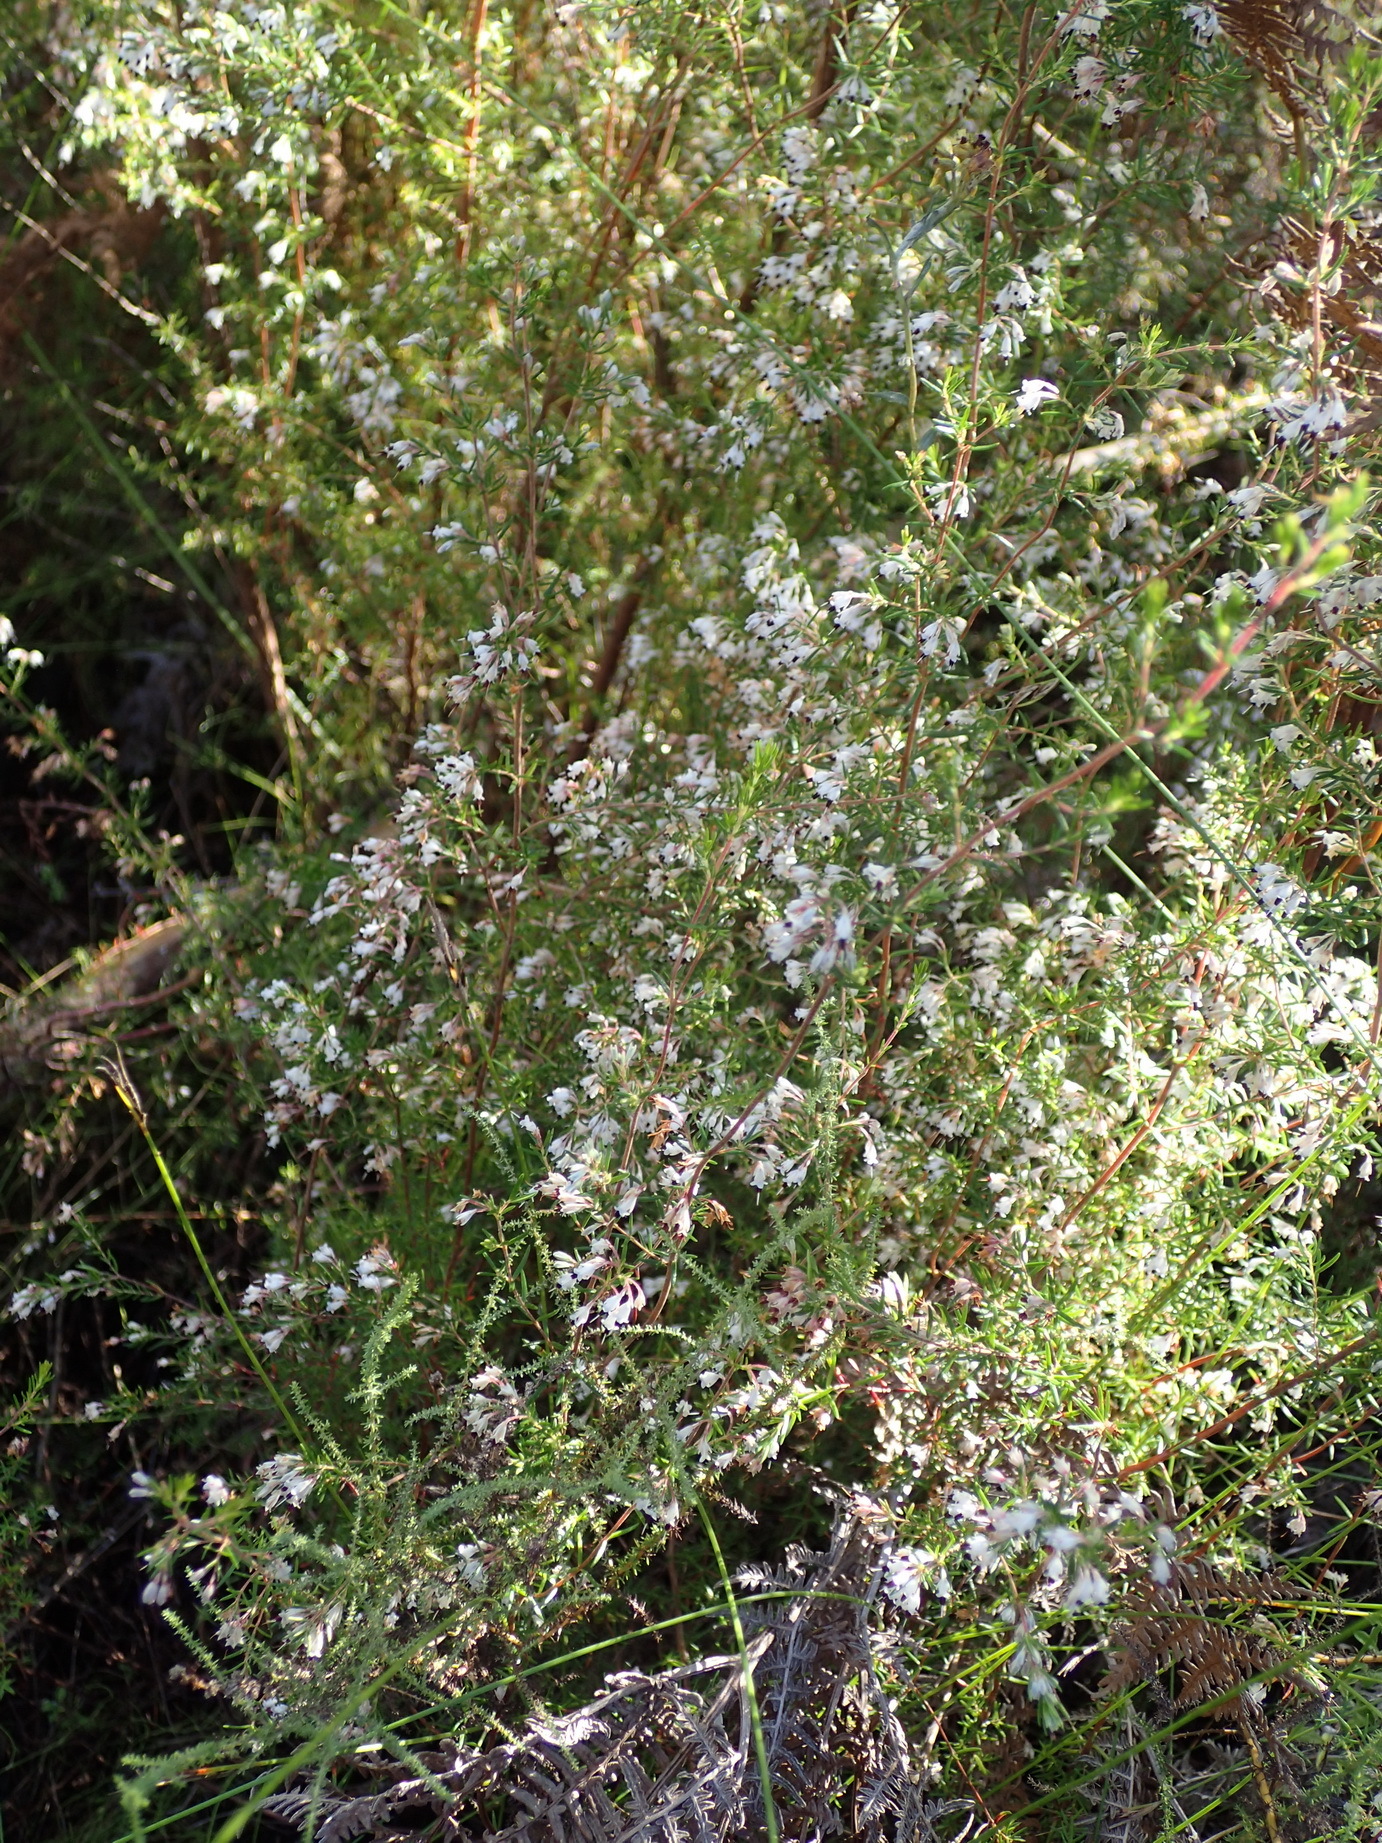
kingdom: Plantae
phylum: Tracheophyta
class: Magnoliopsida
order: Ericales
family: Ericaceae
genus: Erica
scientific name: Erica fuscescens
